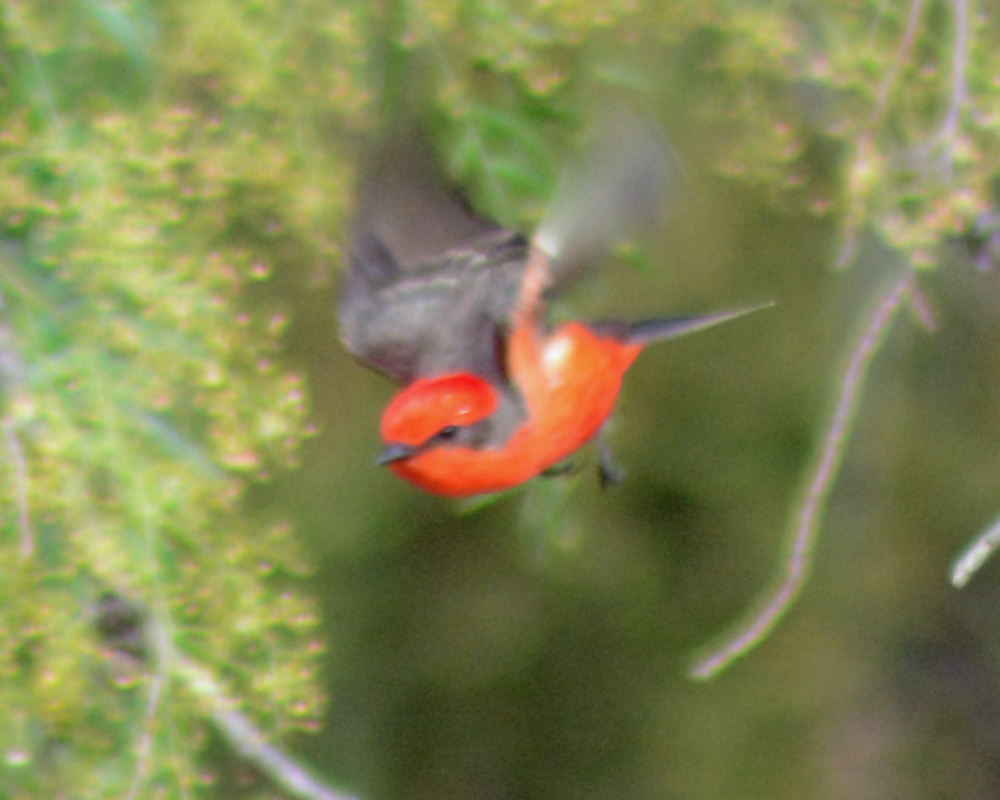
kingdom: Animalia
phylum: Chordata
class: Aves
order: Passeriformes
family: Tyrannidae
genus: Pyrocephalus
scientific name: Pyrocephalus rubinus
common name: Vermilion flycatcher
